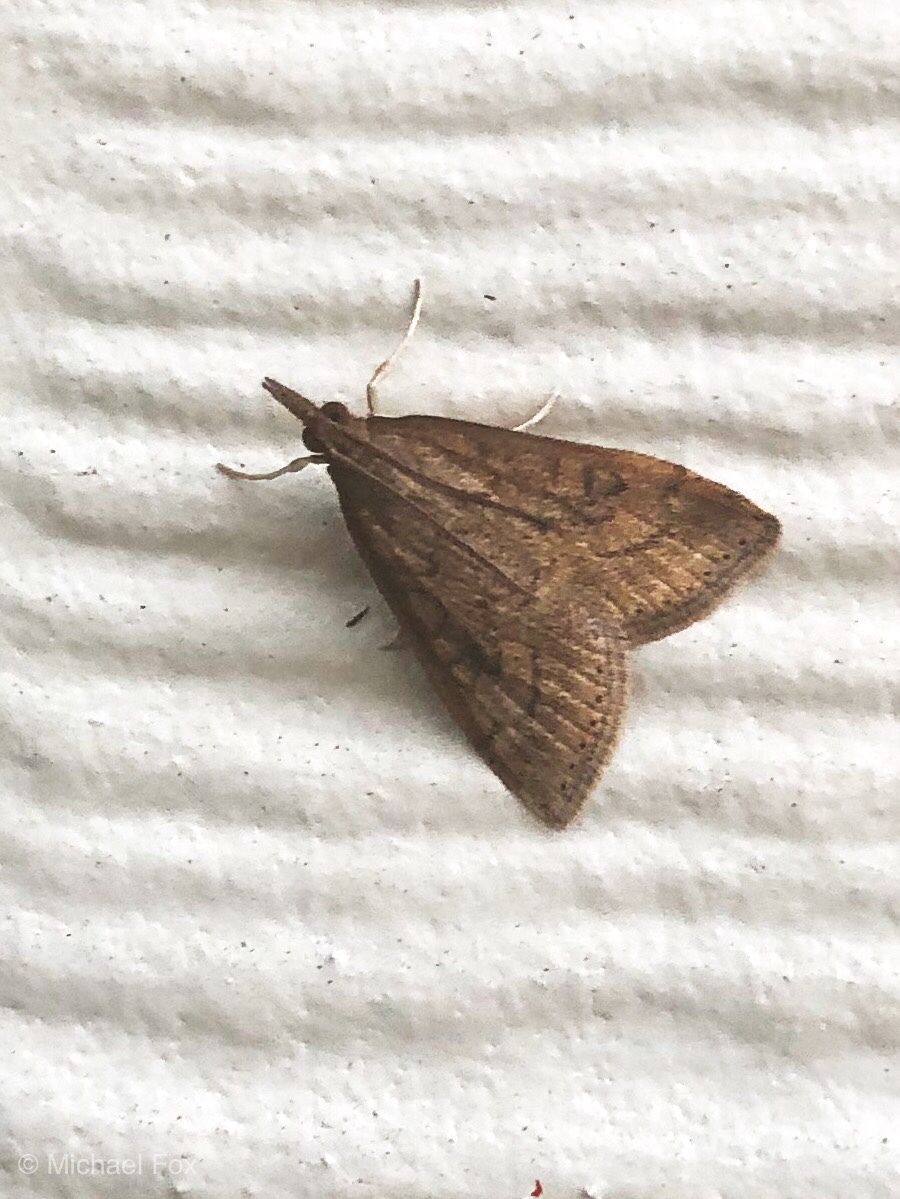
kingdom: Animalia
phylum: Arthropoda
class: Insecta
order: Lepidoptera
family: Crambidae
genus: Udea
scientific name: Udea rubigalis
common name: Celery leaftier moth
